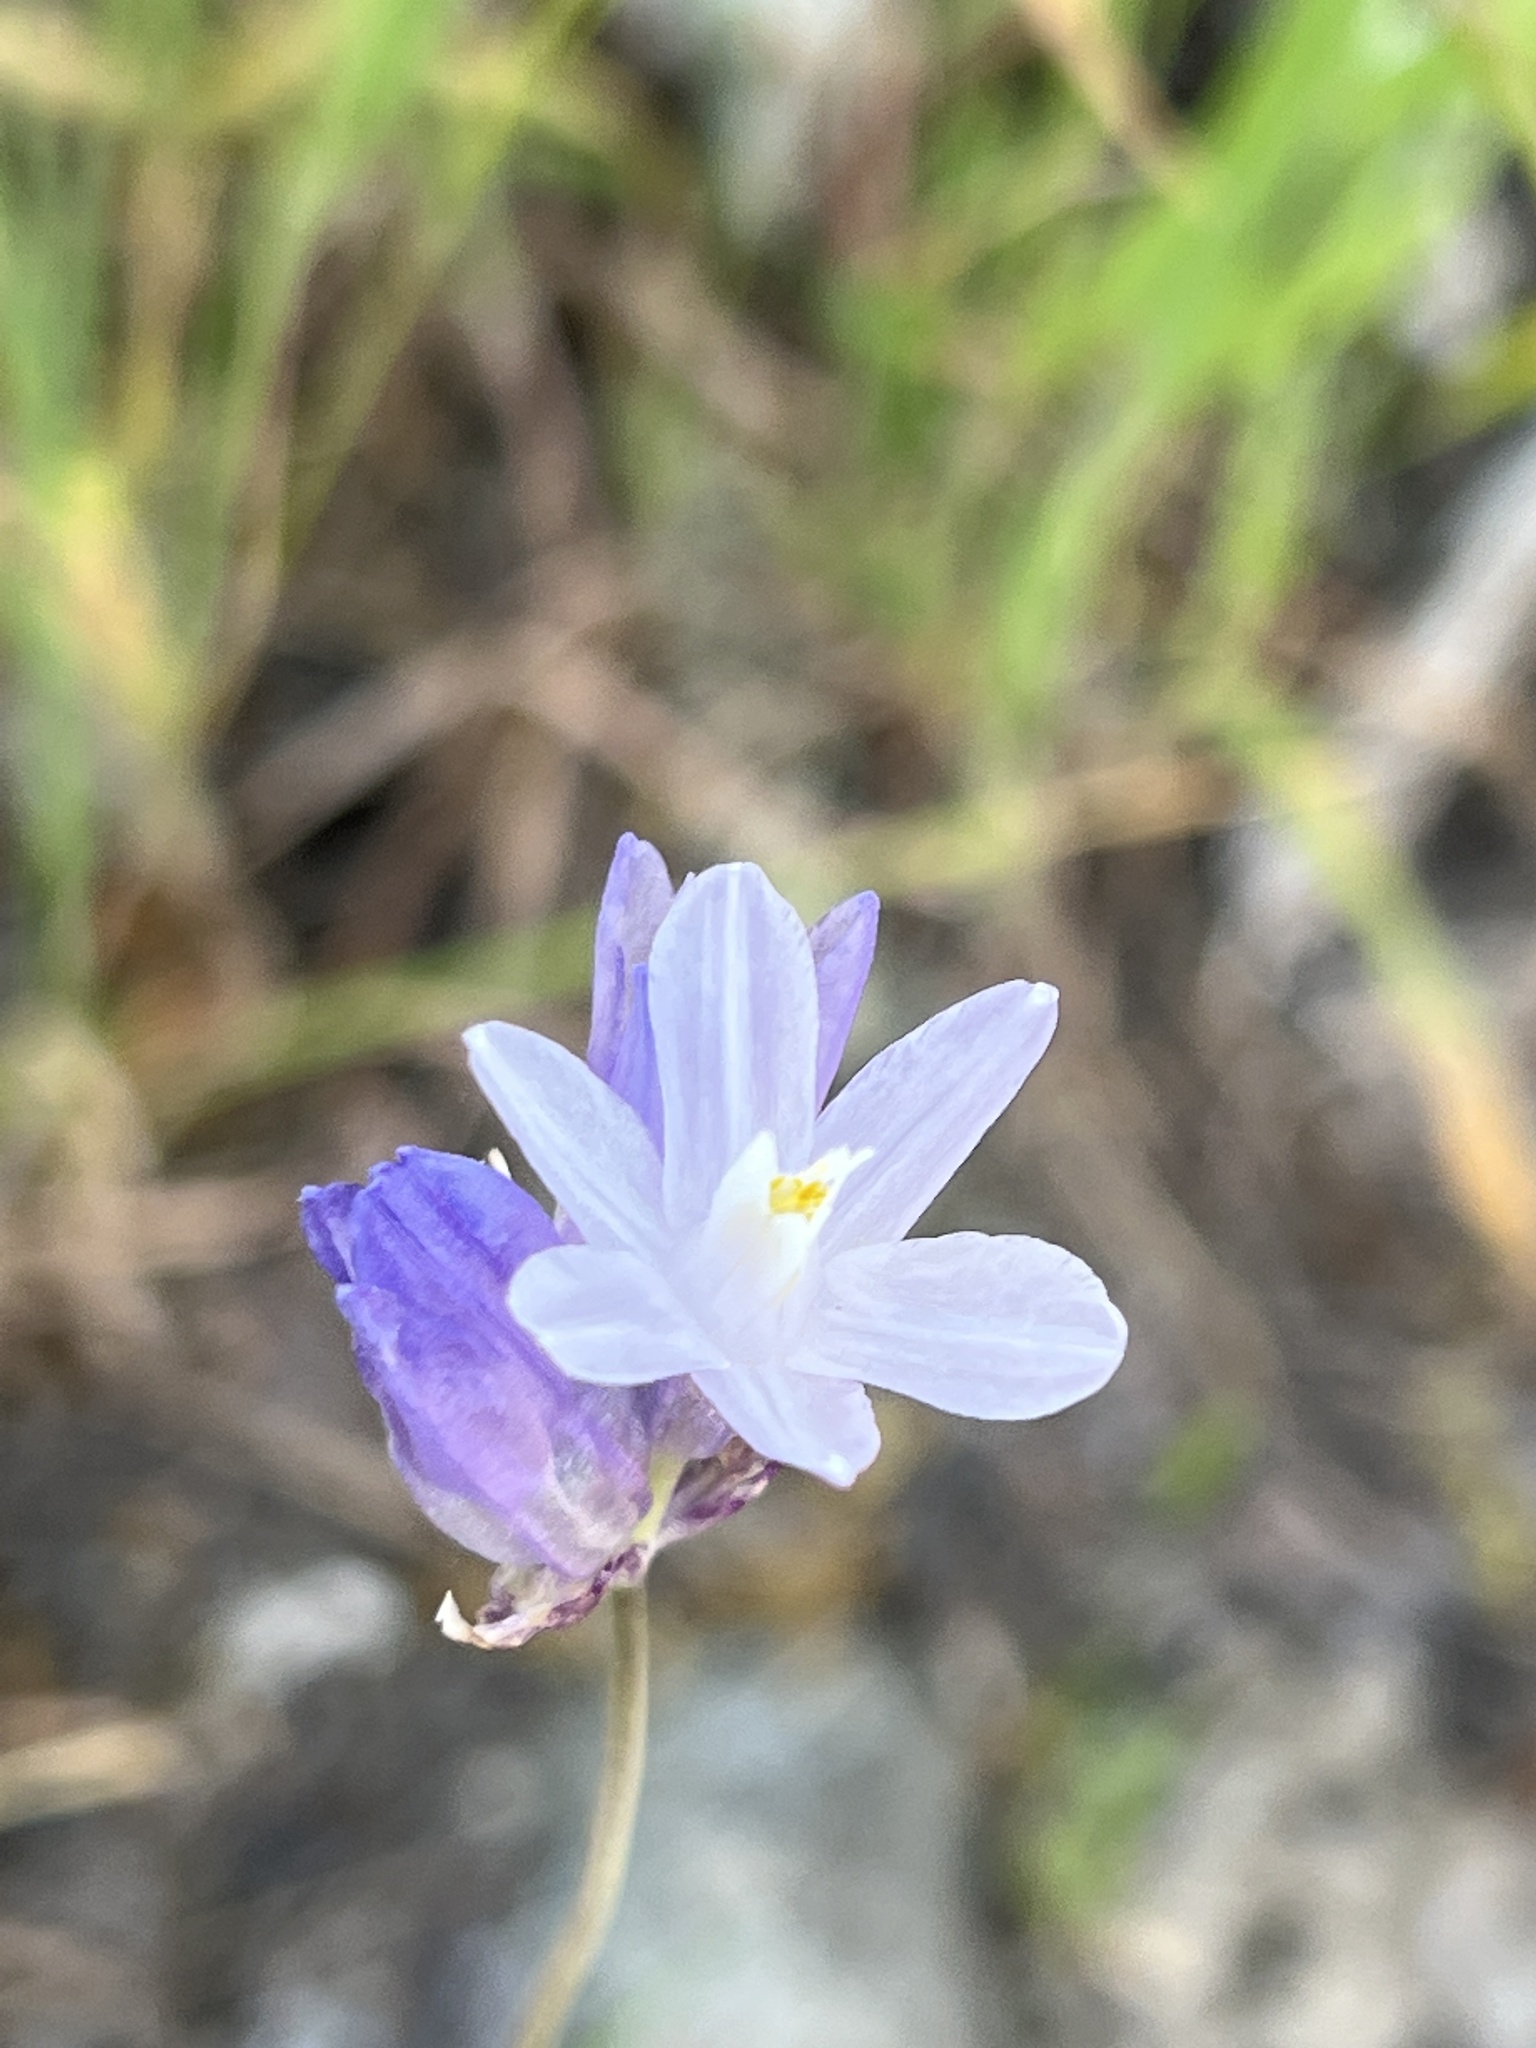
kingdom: Plantae
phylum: Tracheophyta
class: Liliopsida
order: Asparagales
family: Asparagaceae
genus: Dipterostemon
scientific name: Dipterostemon capitatus
